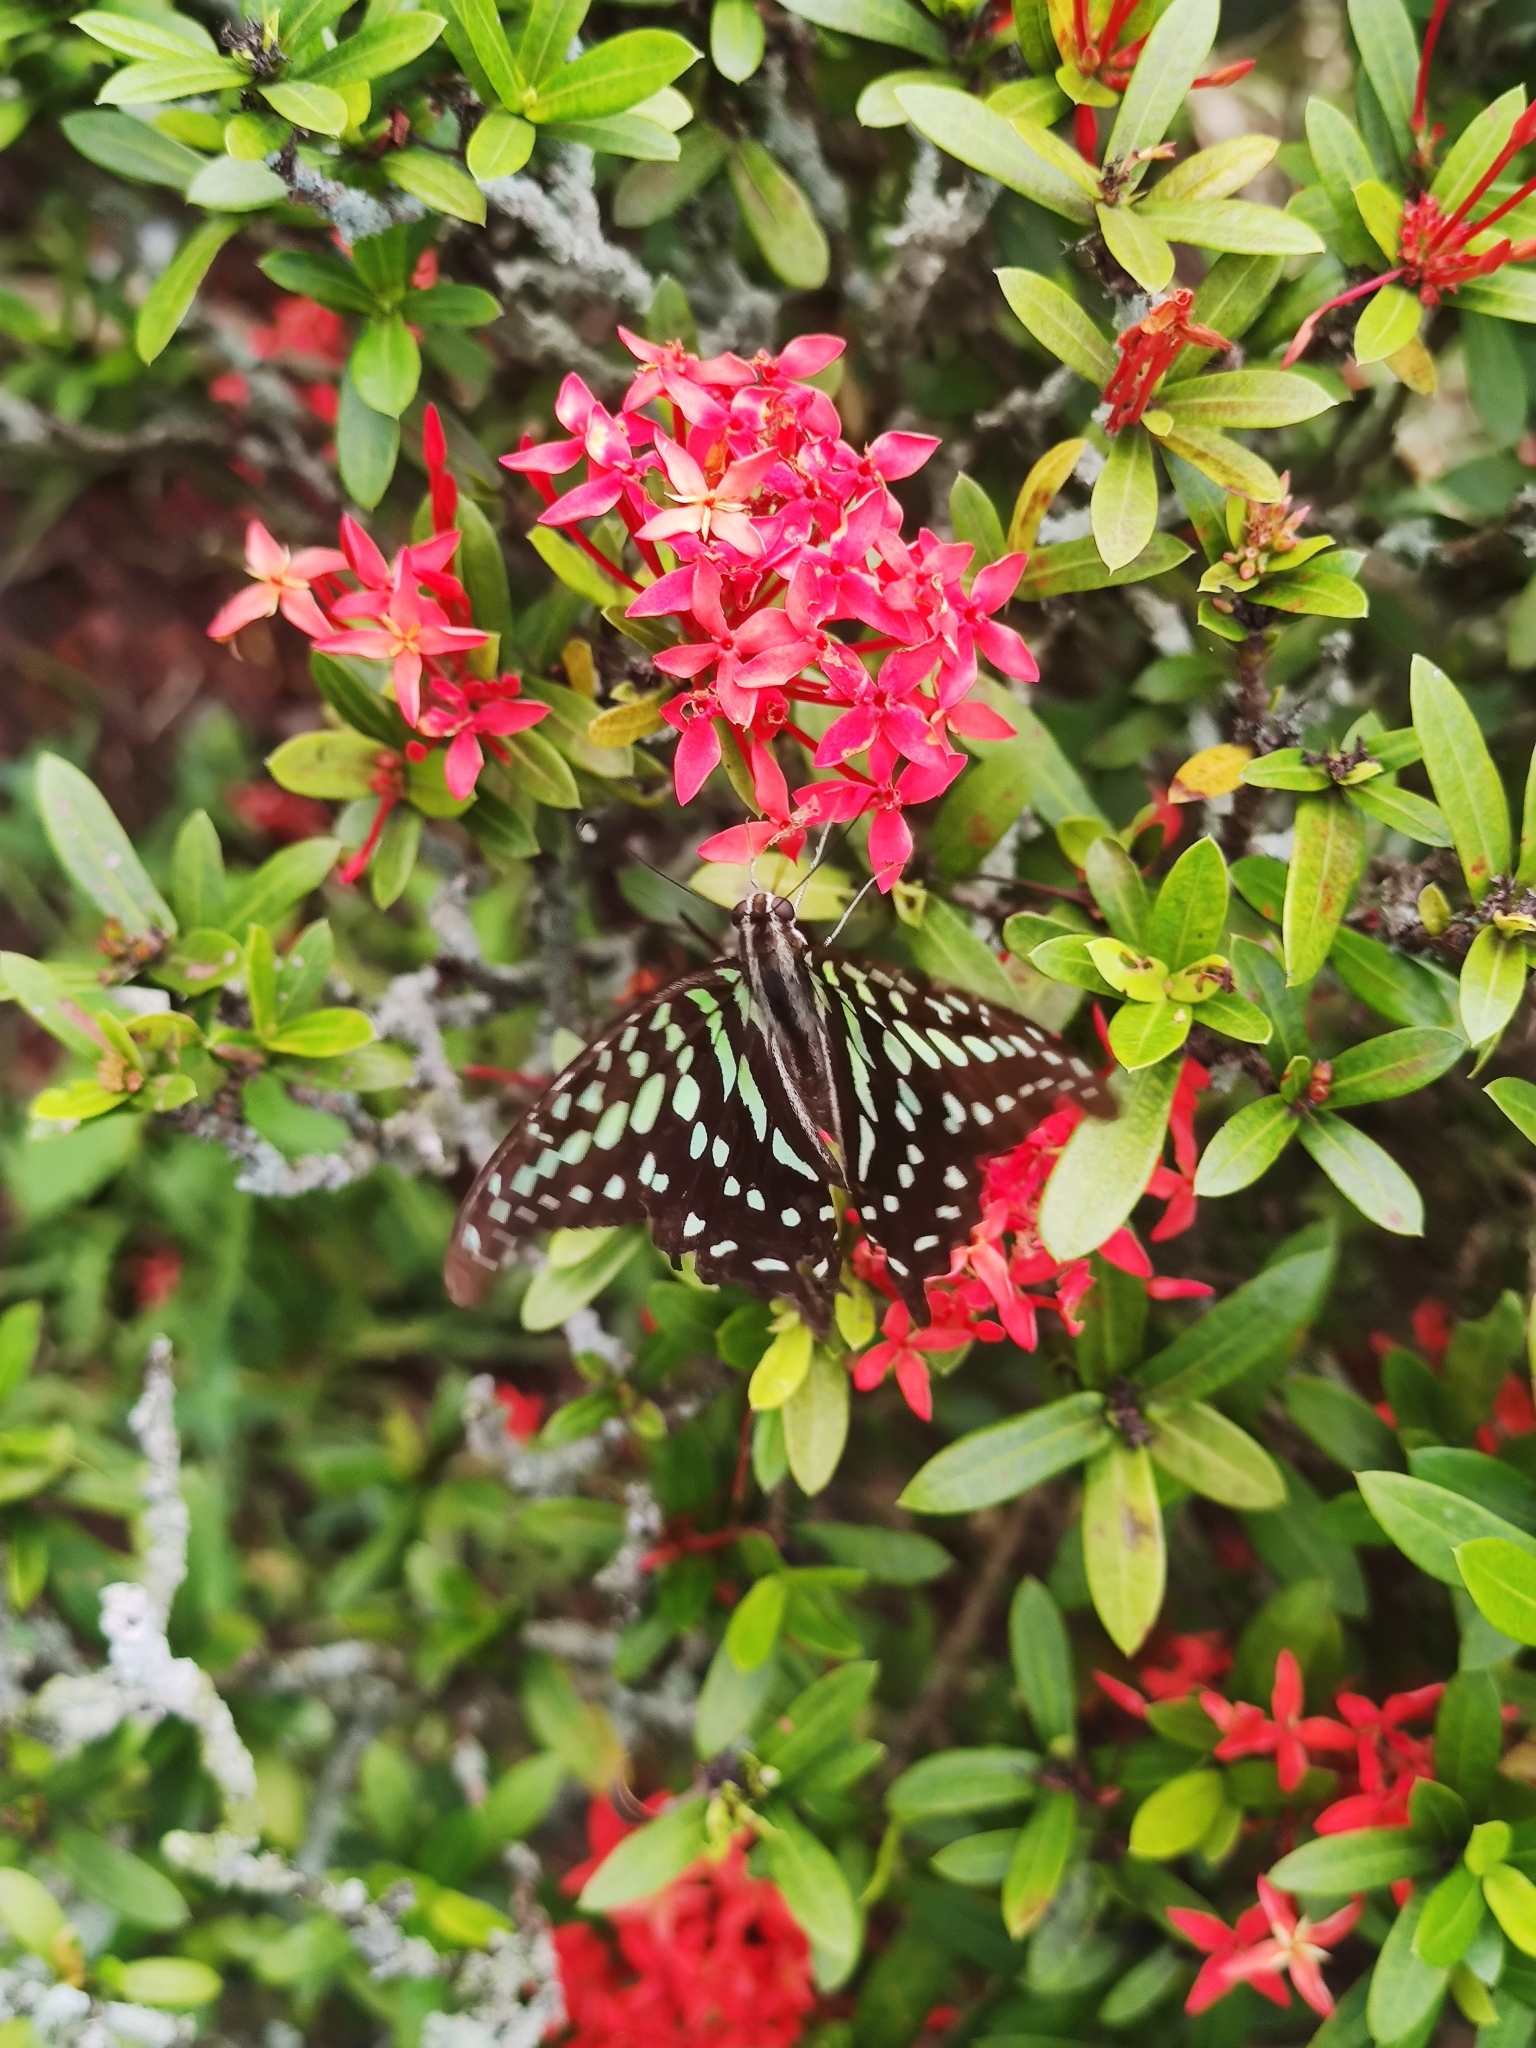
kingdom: Animalia
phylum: Arthropoda
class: Insecta
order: Lepidoptera
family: Papilionidae
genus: Graphium
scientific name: Graphium agamemnon
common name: Tailed jay
